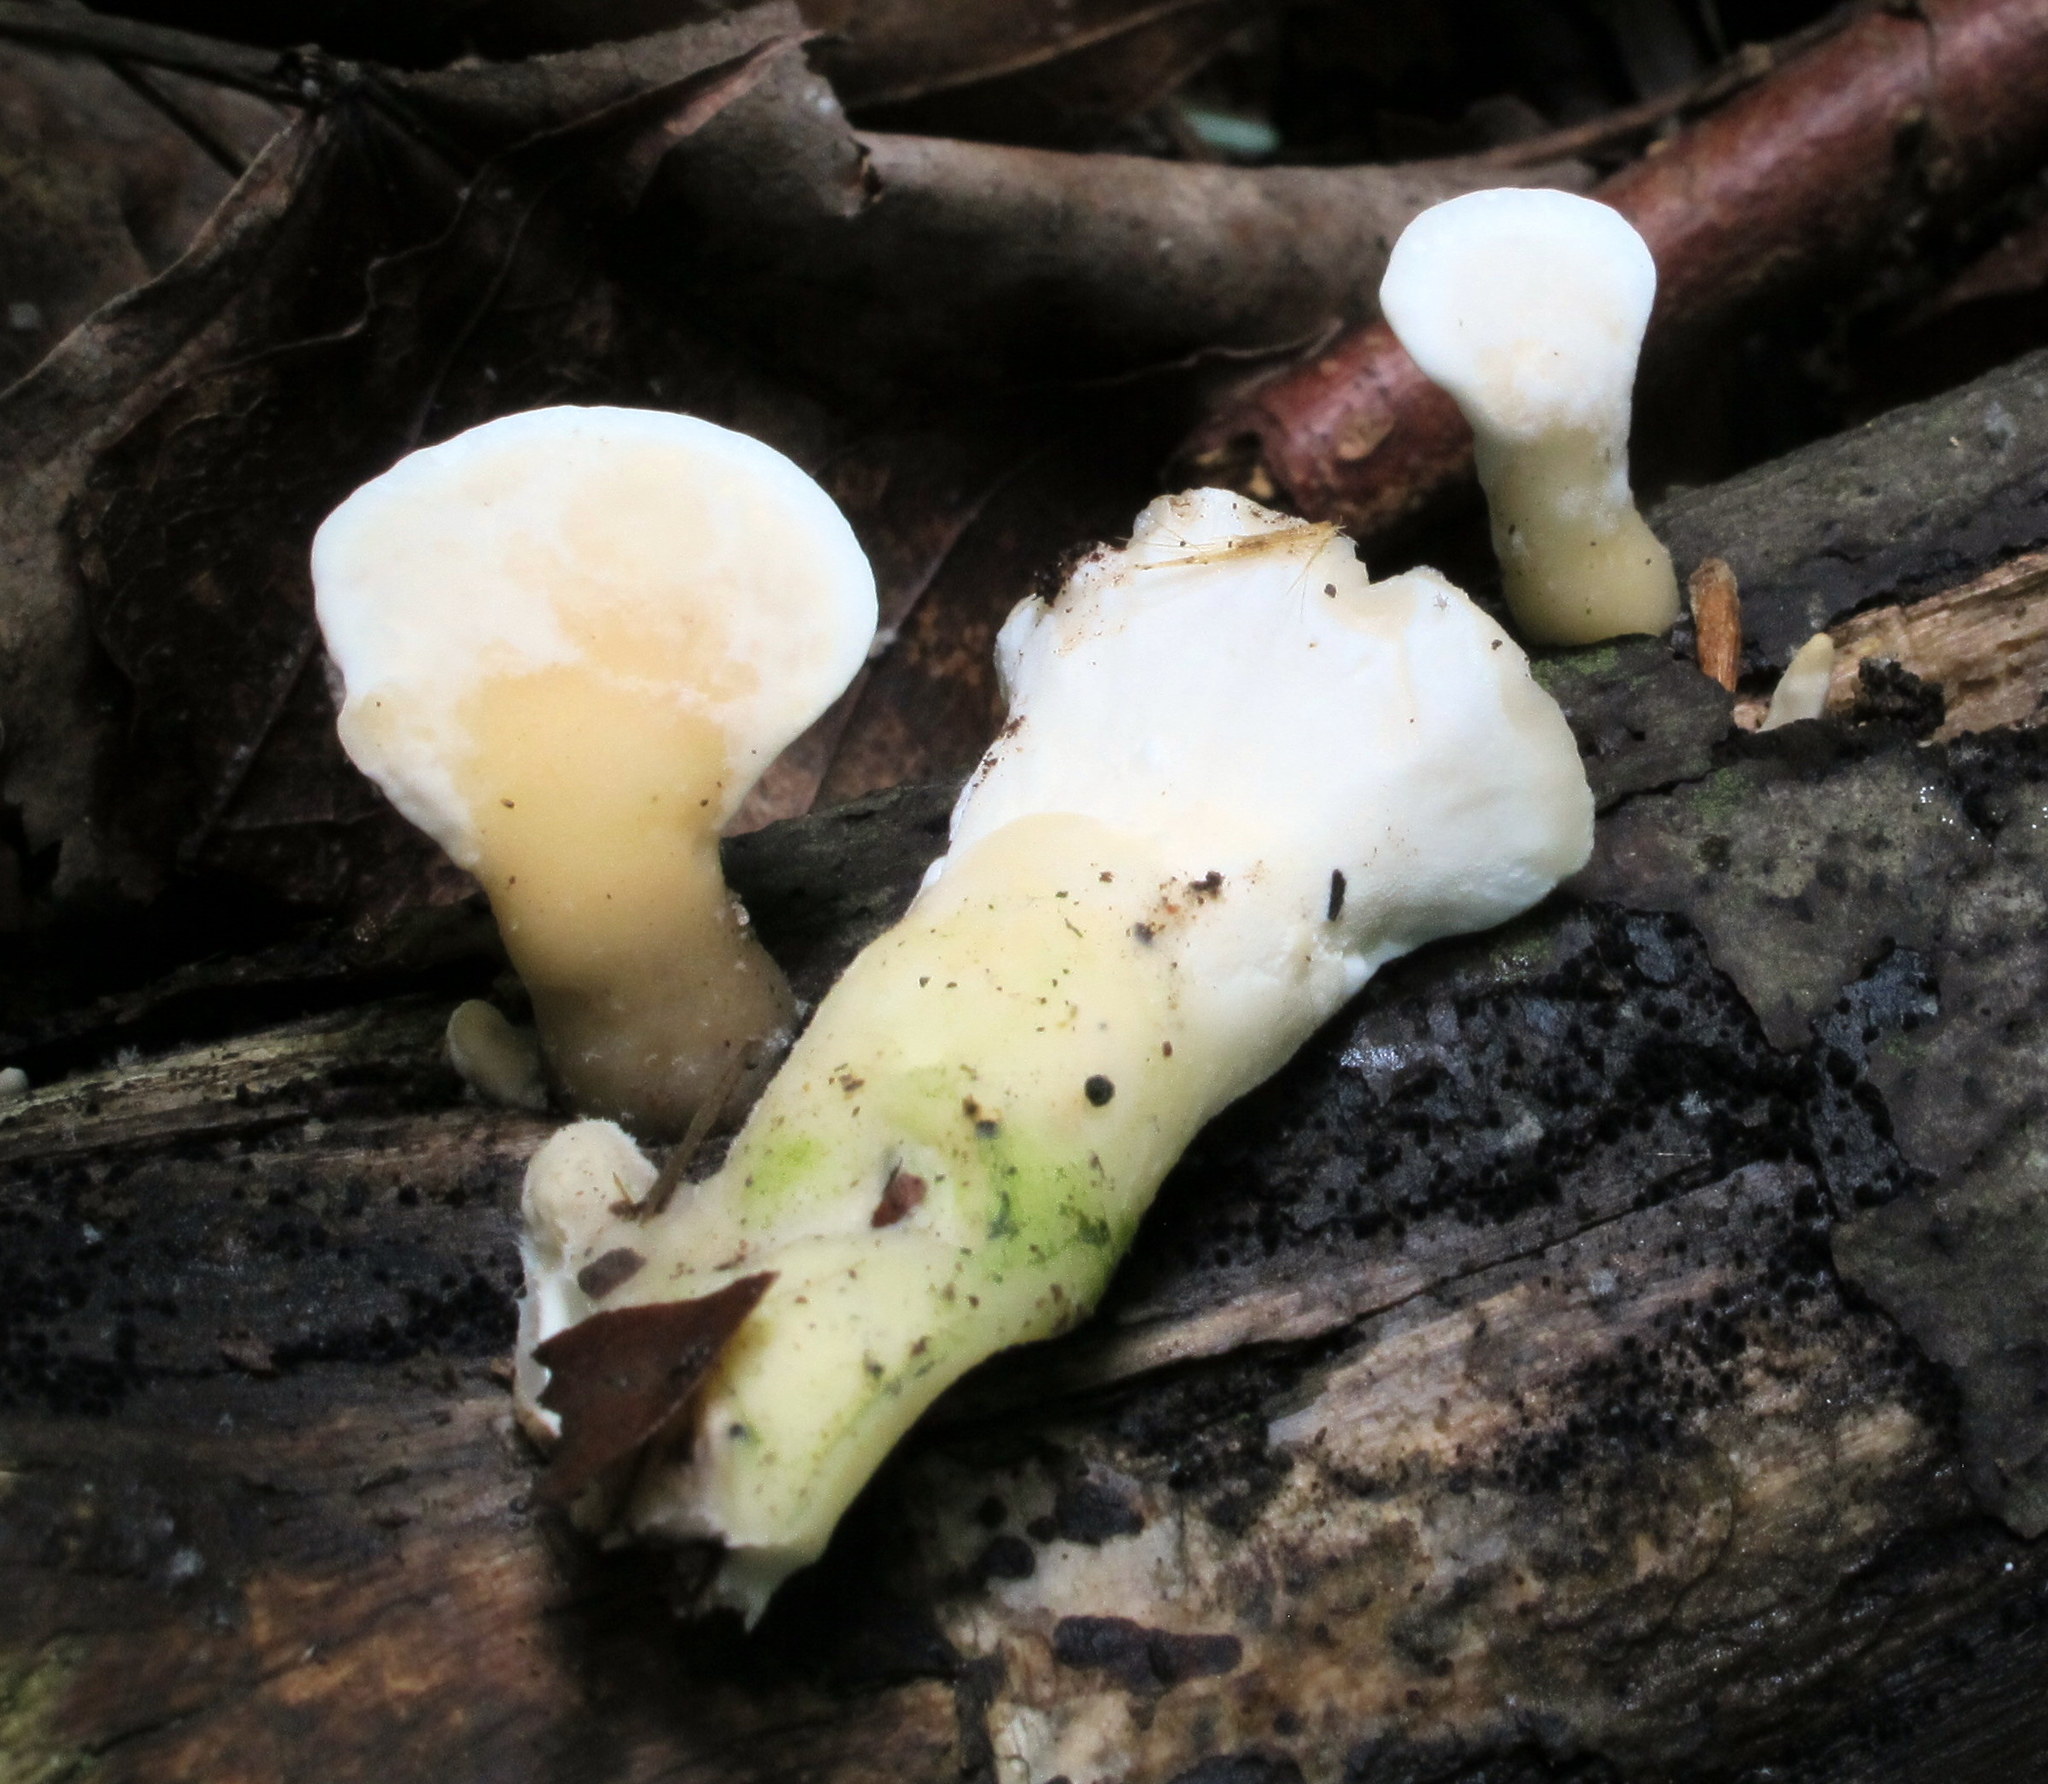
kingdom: Fungi
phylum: Basidiomycota
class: Agaricomycetes
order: Polyporales
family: Steccherinaceae
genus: Loweomyces
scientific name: Loweomyces fractipes
